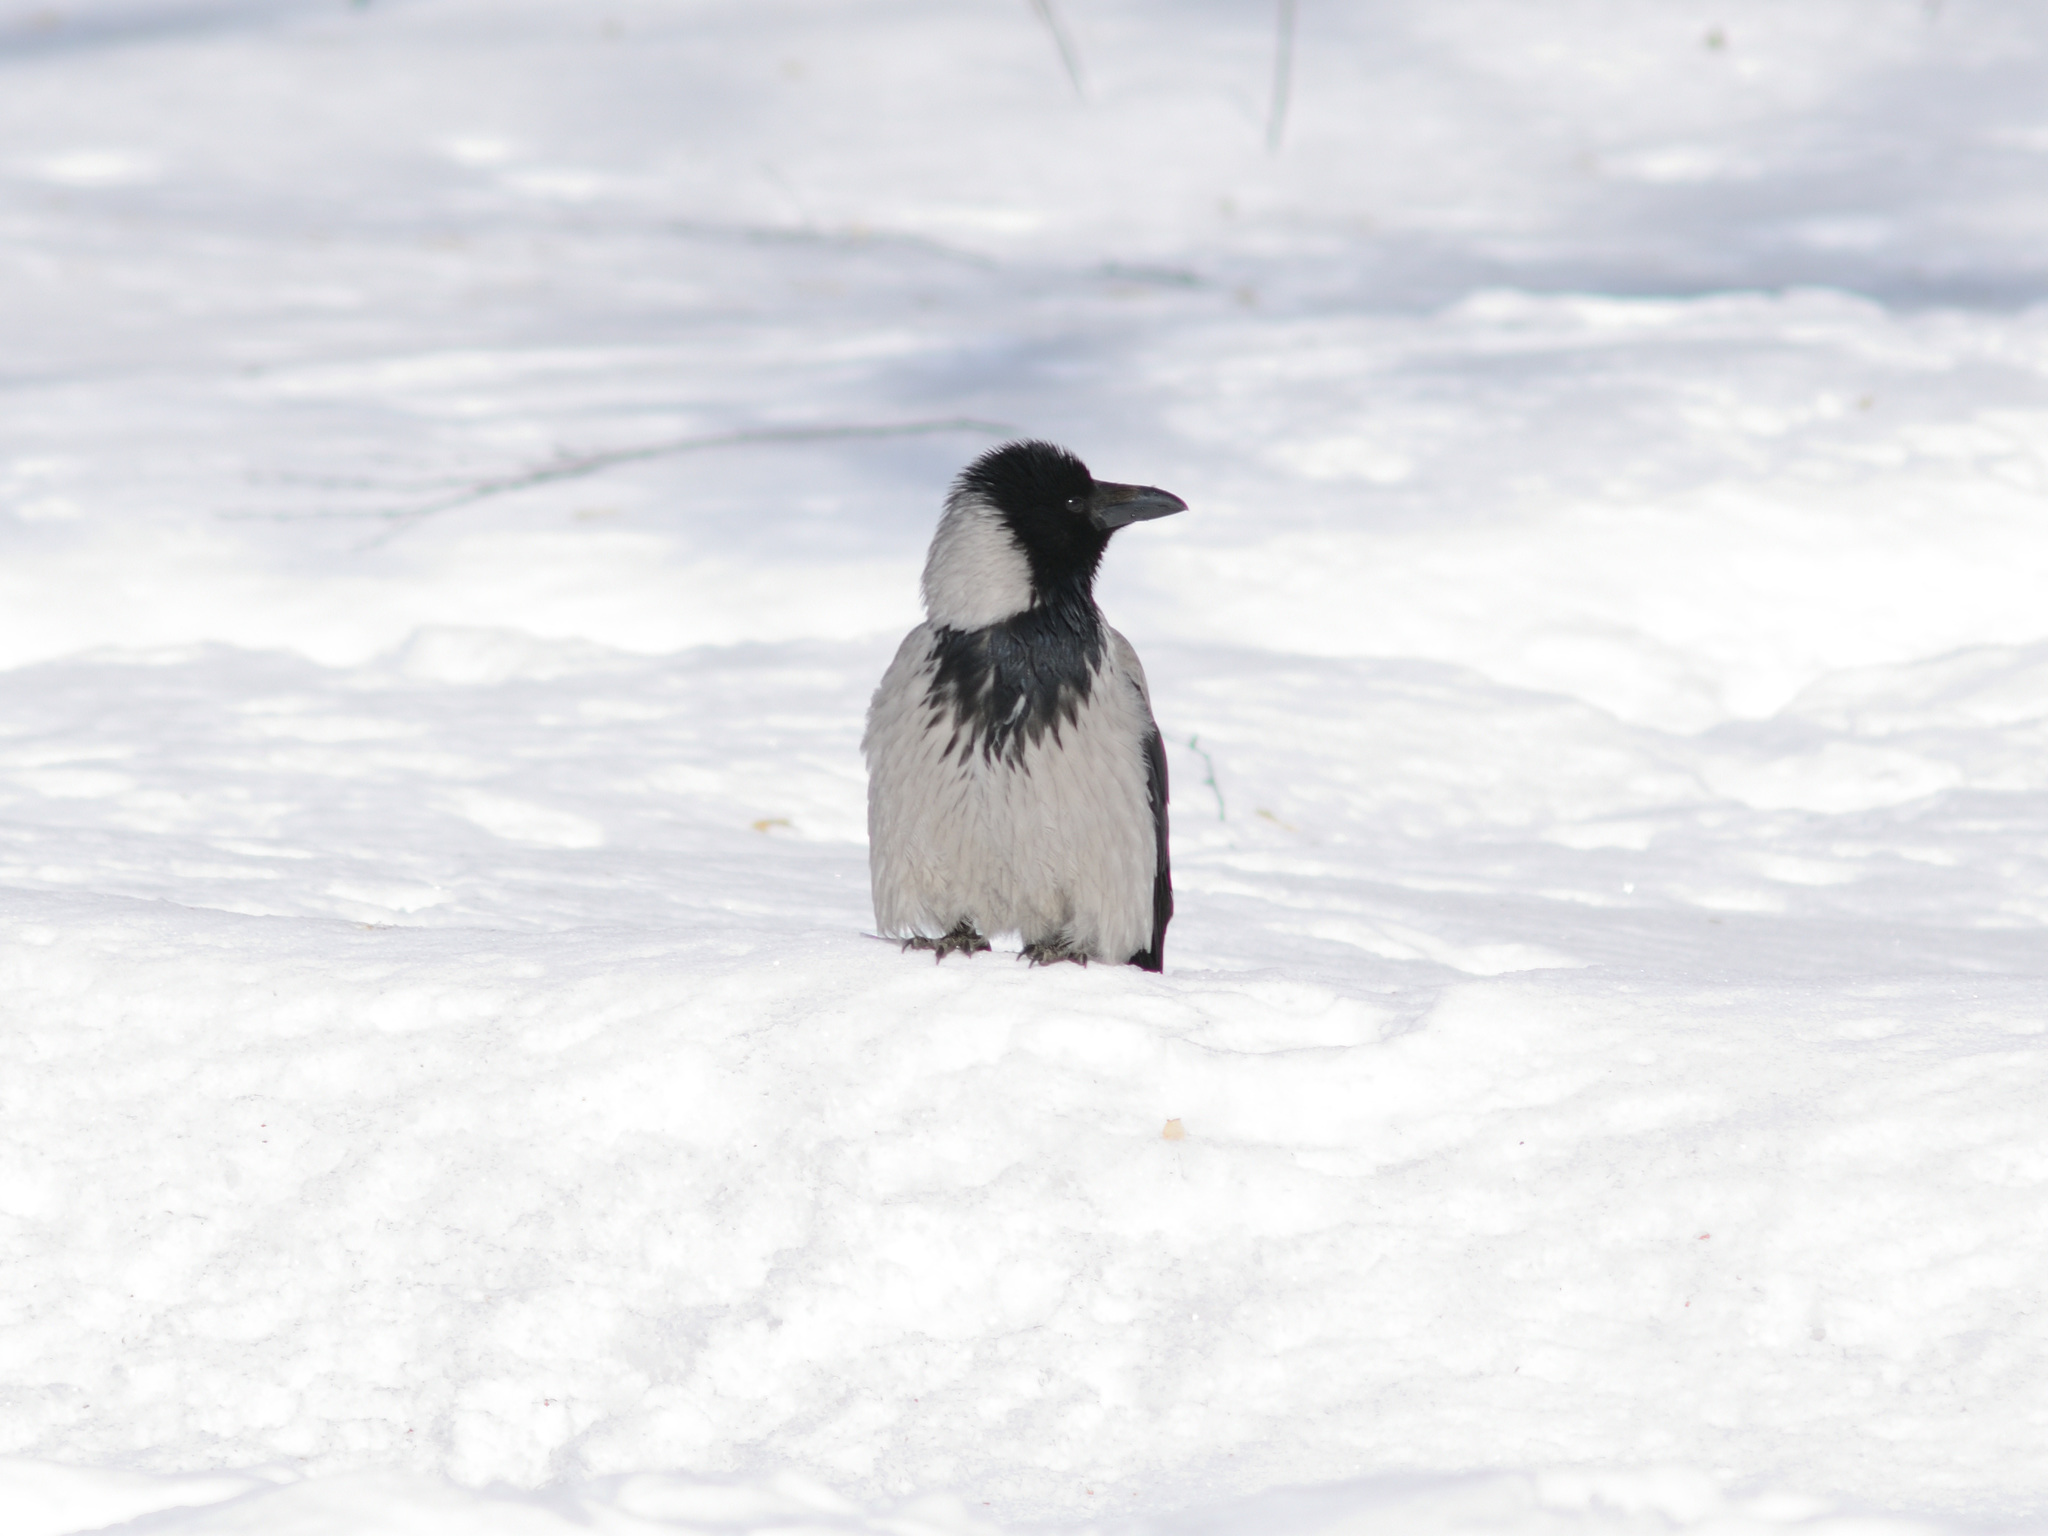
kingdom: Animalia
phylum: Chordata
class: Aves
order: Passeriformes
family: Corvidae
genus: Corvus
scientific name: Corvus cornix
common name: Hooded crow
